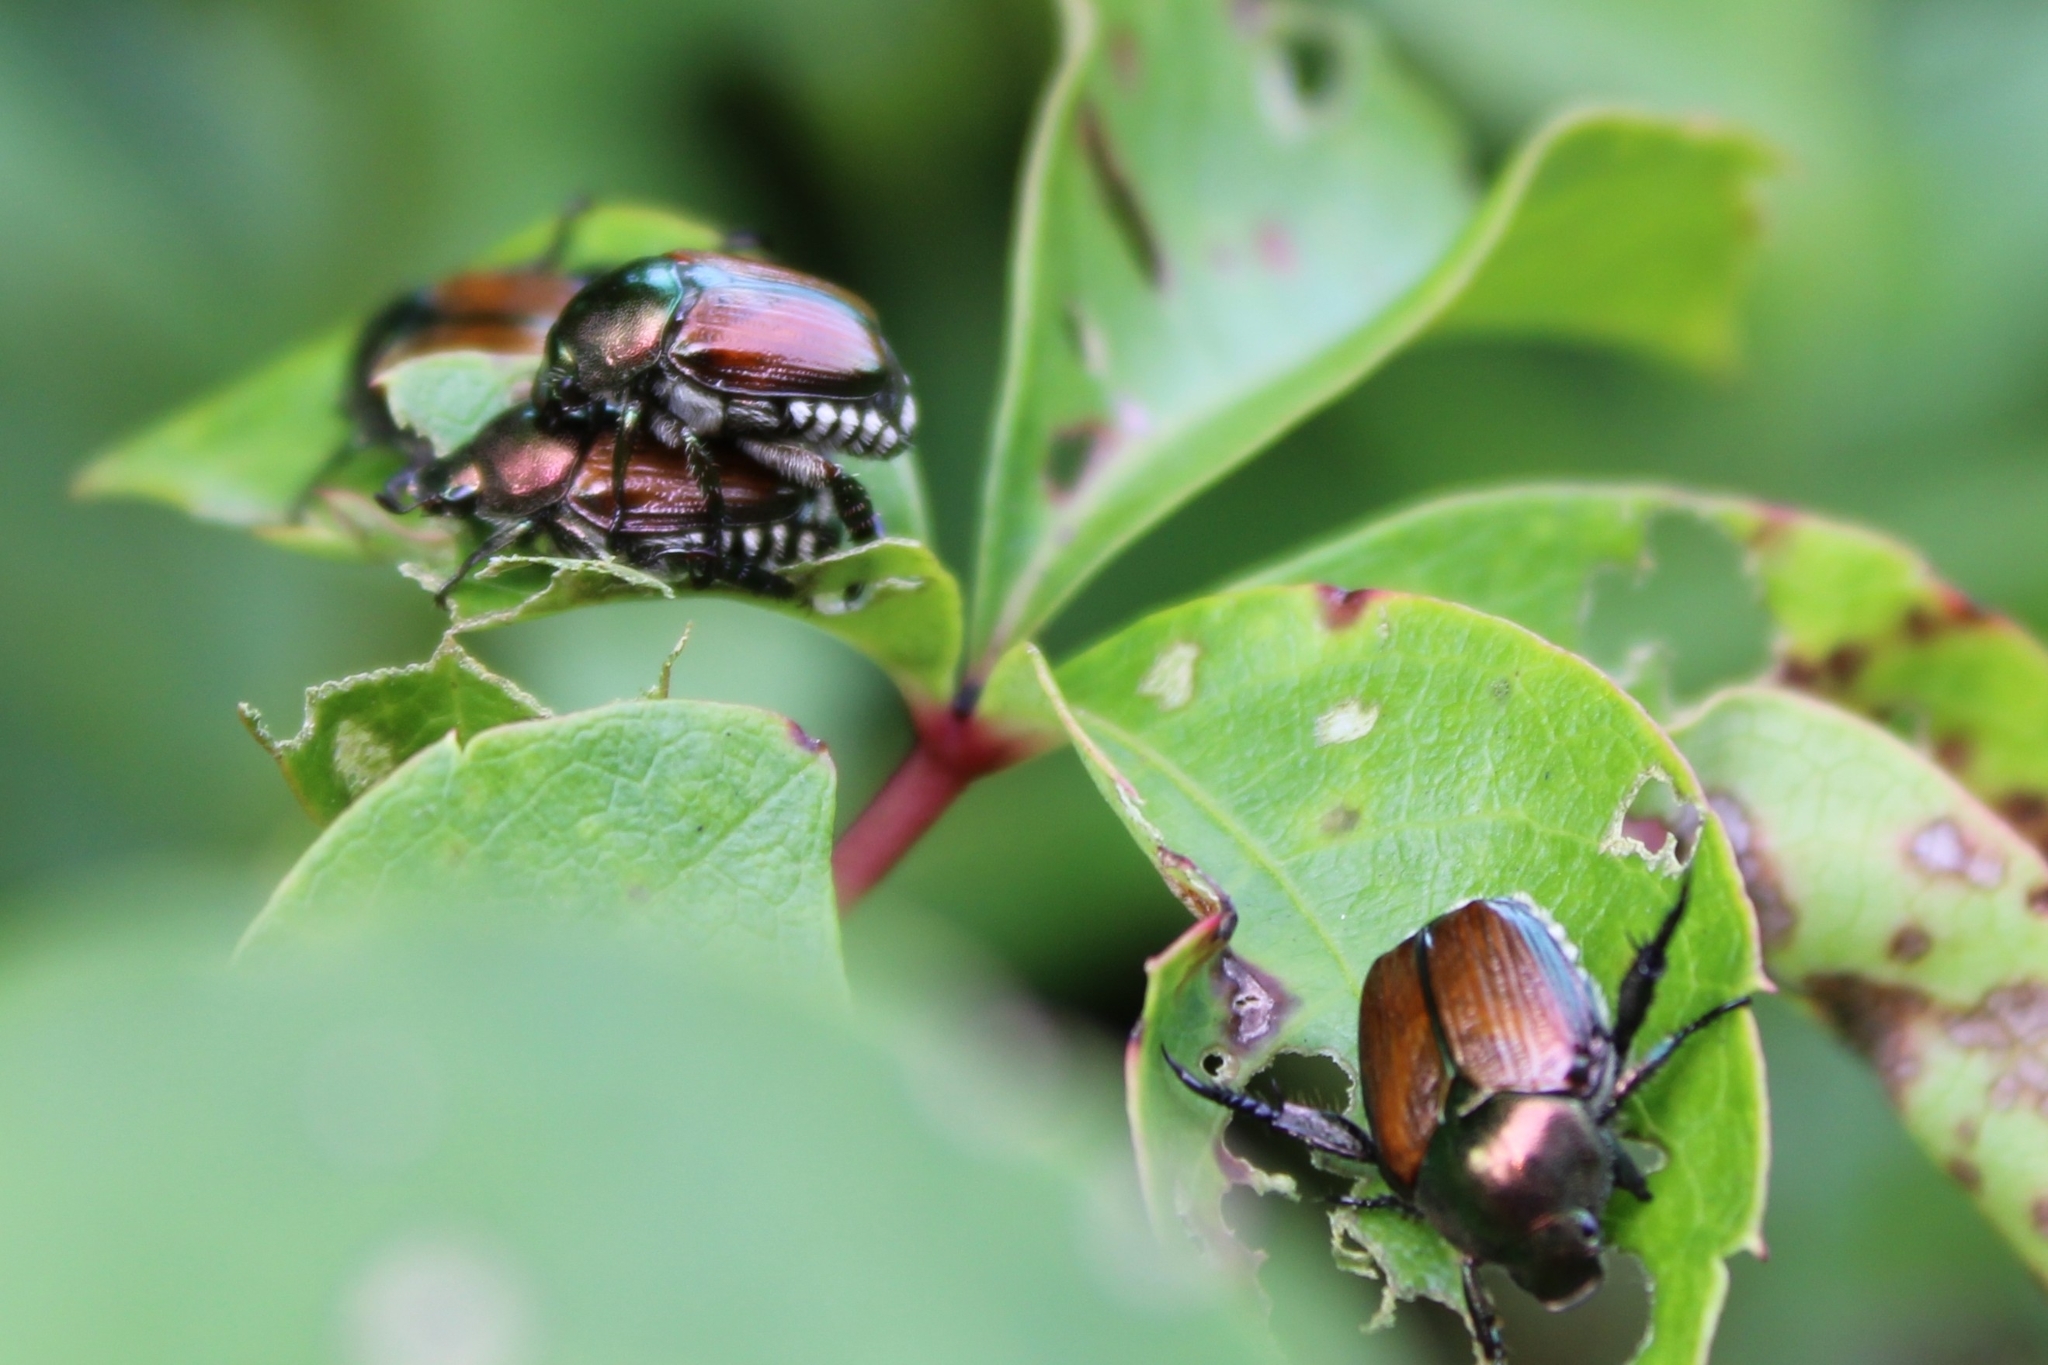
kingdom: Animalia
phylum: Arthropoda
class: Insecta
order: Coleoptera
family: Scarabaeidae
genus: Popillia
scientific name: Popillia japonica
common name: Japanese beetle
